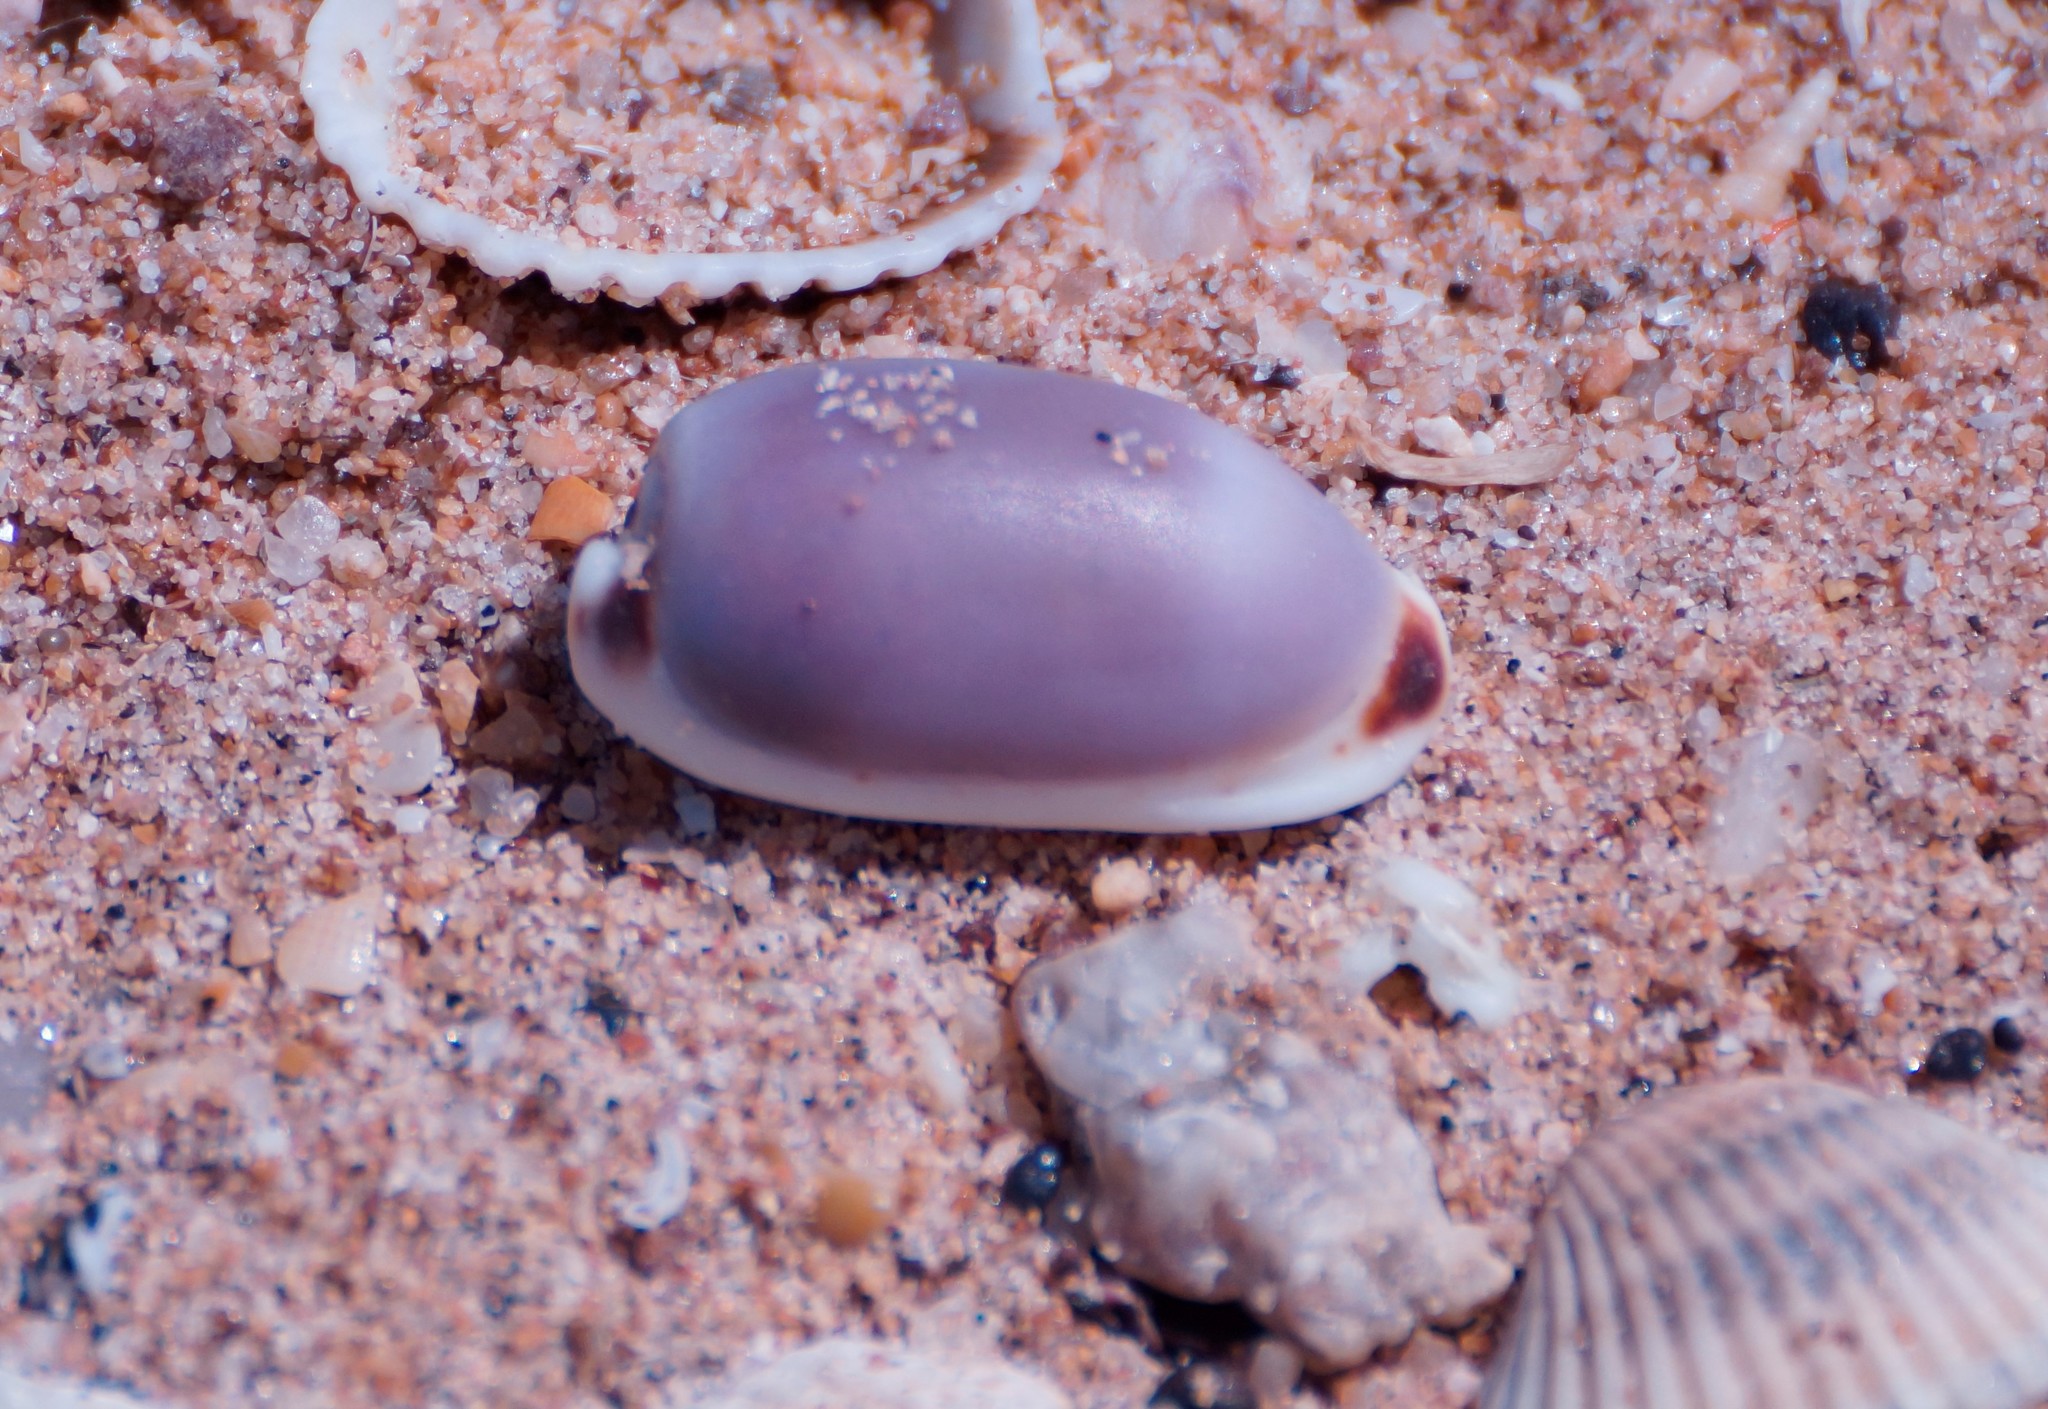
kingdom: Animalia
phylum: Mollusca
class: Gastropoda
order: Littorinimorpha
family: Cypraeidae
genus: Erronea
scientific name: Erronea cylindrica
